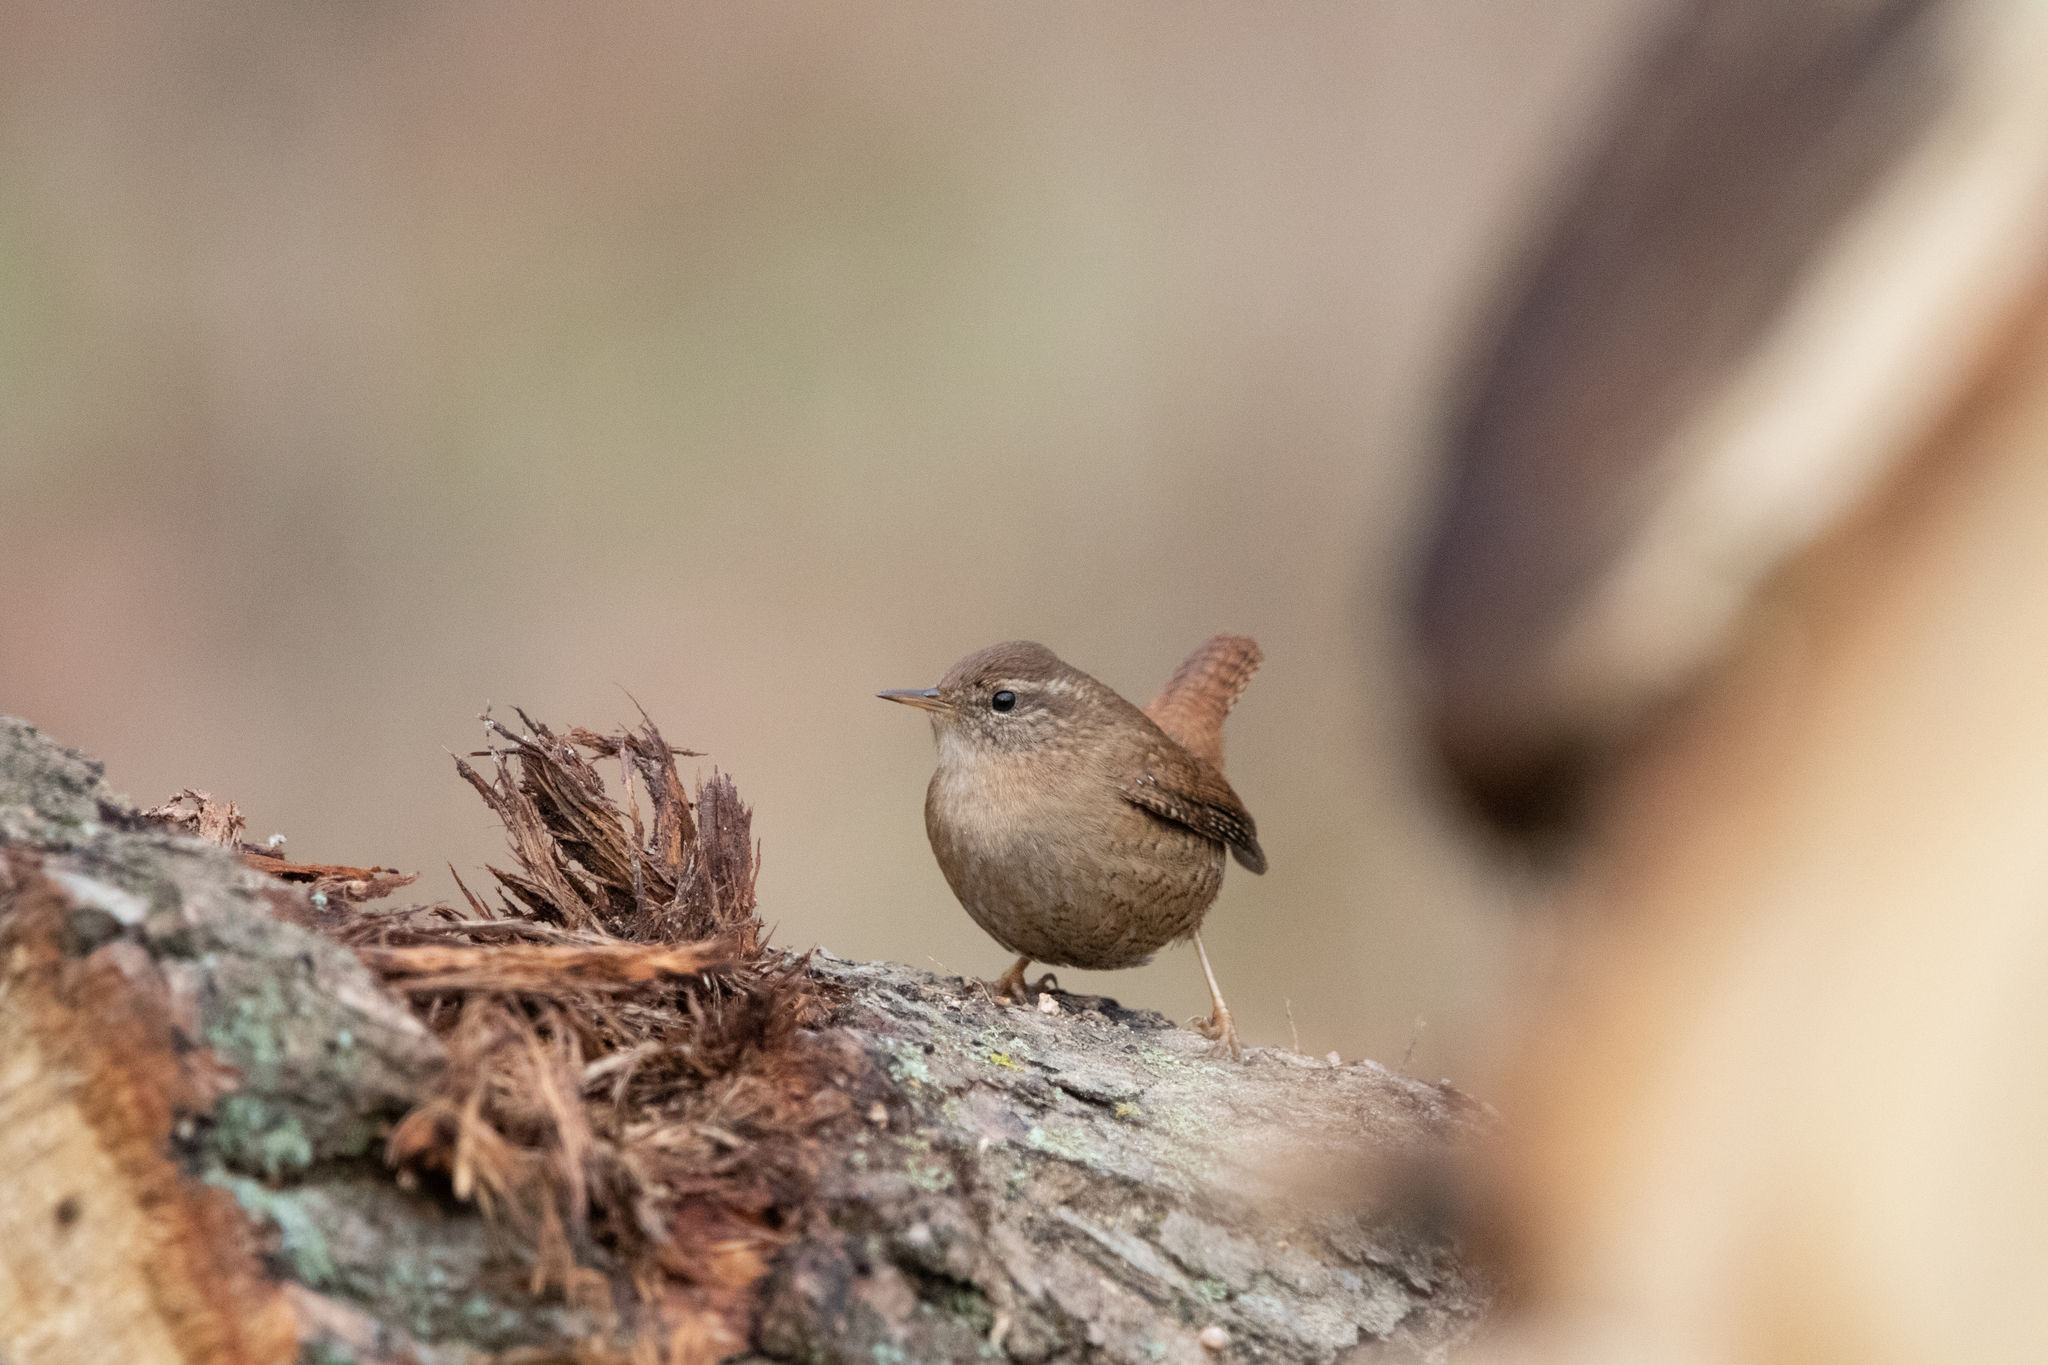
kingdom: Animalia
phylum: Chordata
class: Aves
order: Passeriformes
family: Troglodytidae
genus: Troglodytes
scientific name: Troglodytes troglodytes
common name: Eurasian wren
